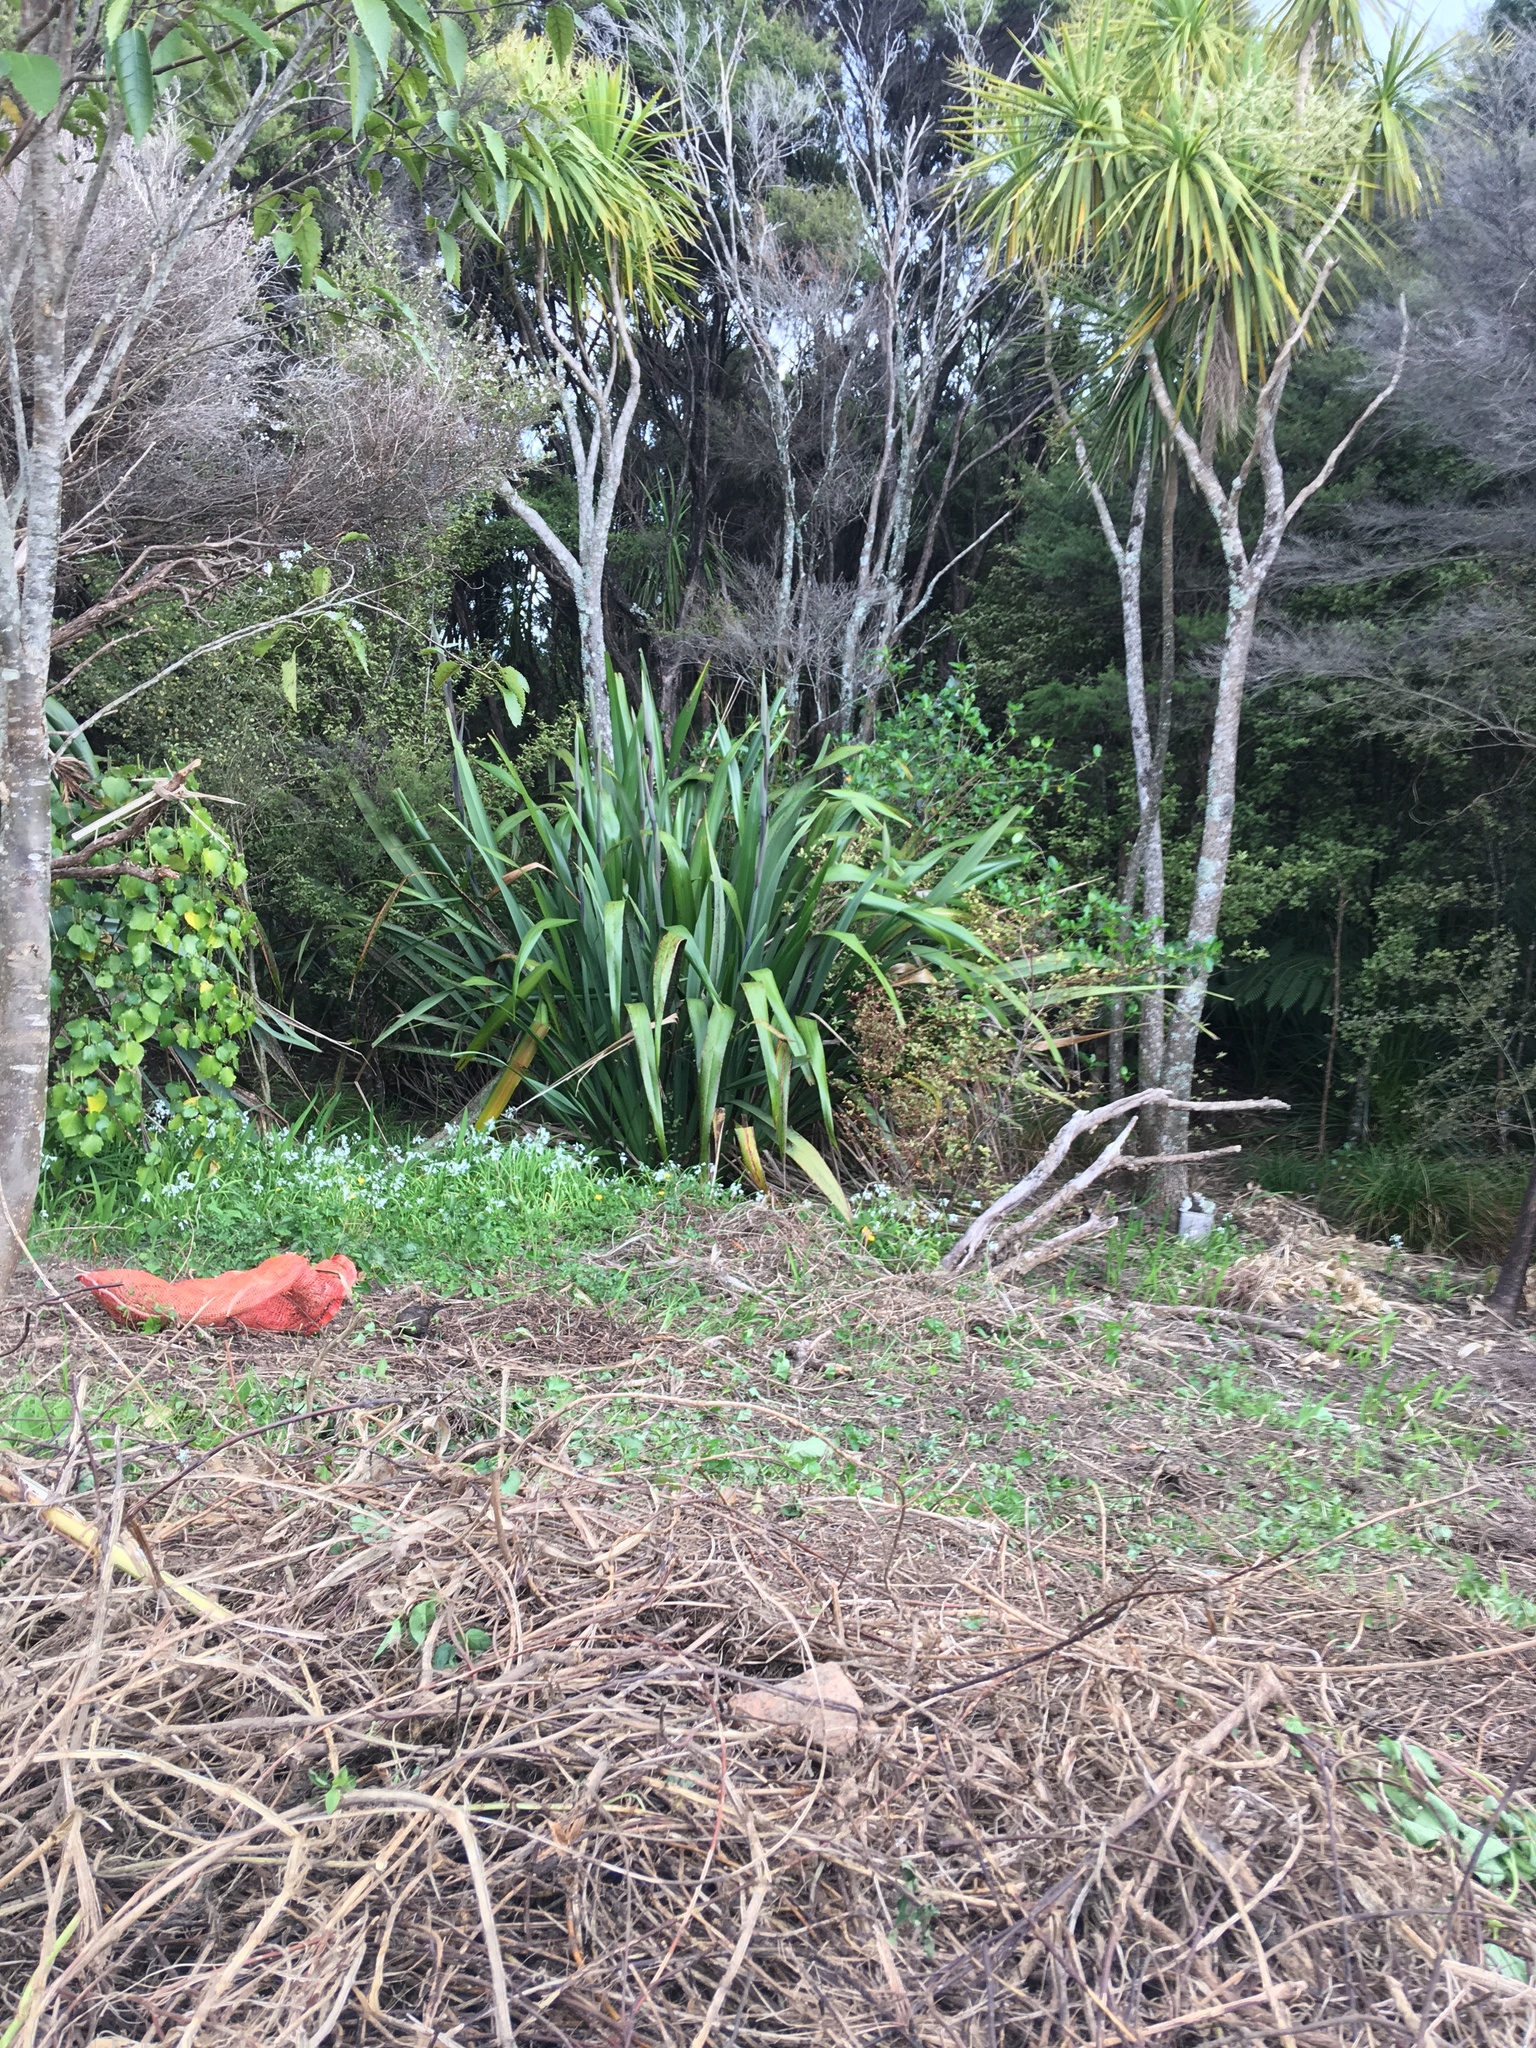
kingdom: Plantae
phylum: Tracheophyta
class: Magnoliopsida
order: Ericales
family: Primulaceae
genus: Myrsine
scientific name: Myrsine australis
